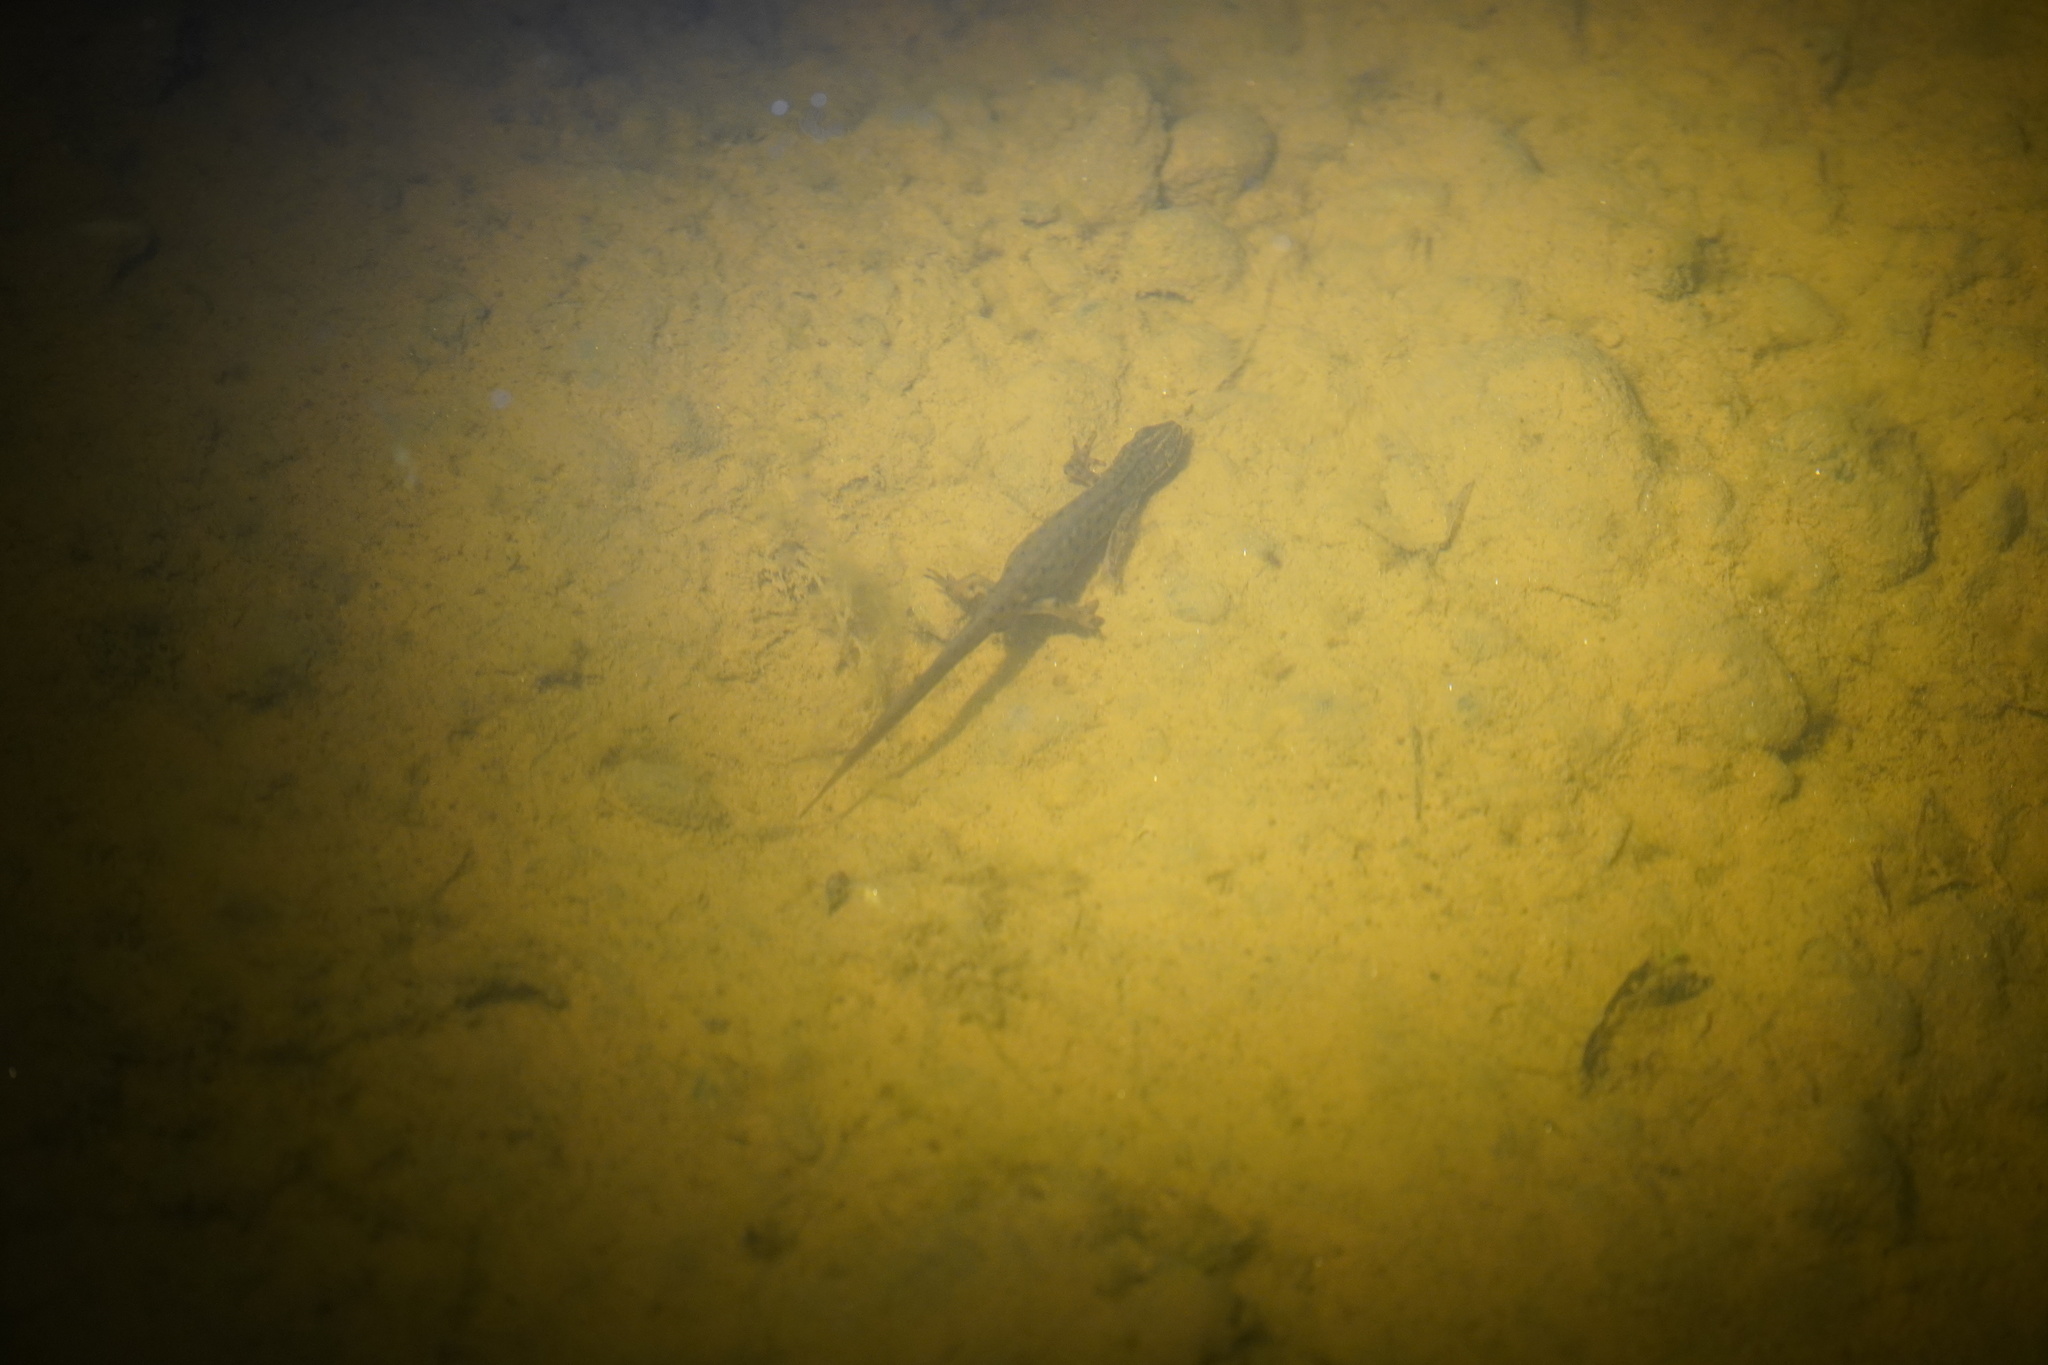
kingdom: Animalia
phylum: Chordata
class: Amphibia
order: Caudata
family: Salamandridae
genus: Lissotriton
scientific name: Lissotriton vulgaris
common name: Smooth newt
